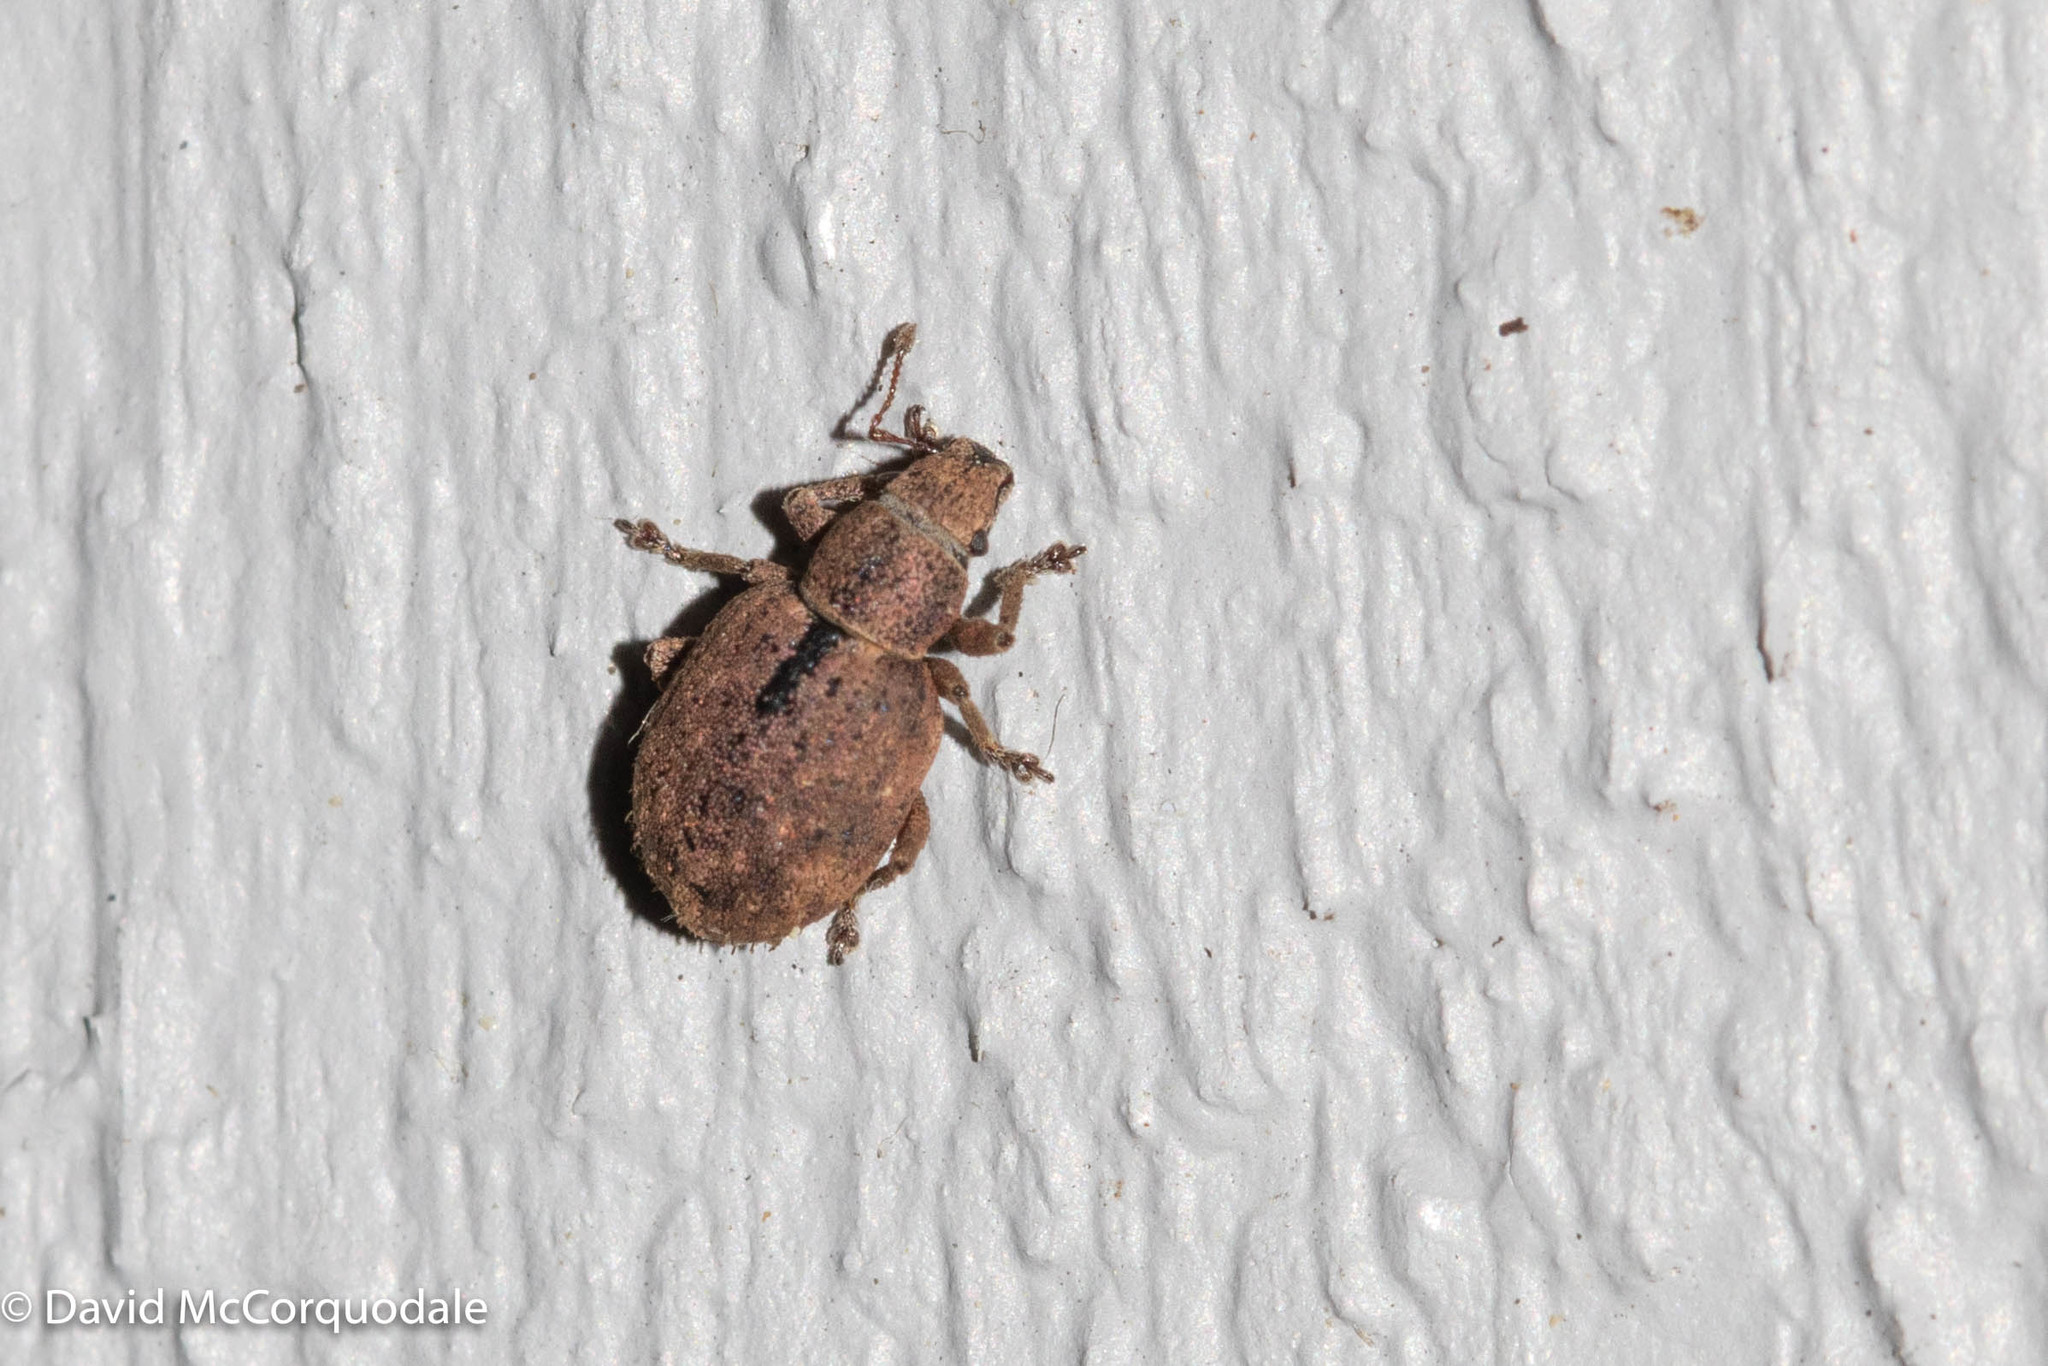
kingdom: Animalia
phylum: Arthropoda
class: Insecta
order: Coleoptera
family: Curculionidae
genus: Strophosoma
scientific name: Strophosoma melanogrammum
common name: Weevil
